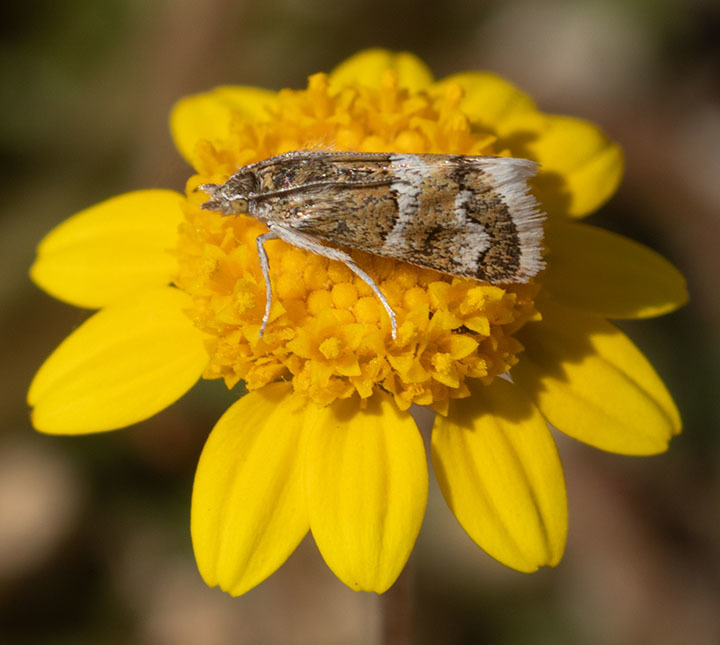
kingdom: Animalia
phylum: Arthropoda
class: Insecta
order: Lepidoptera
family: Crambidae
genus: Nannobotys
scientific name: Nannobotys commortalis
